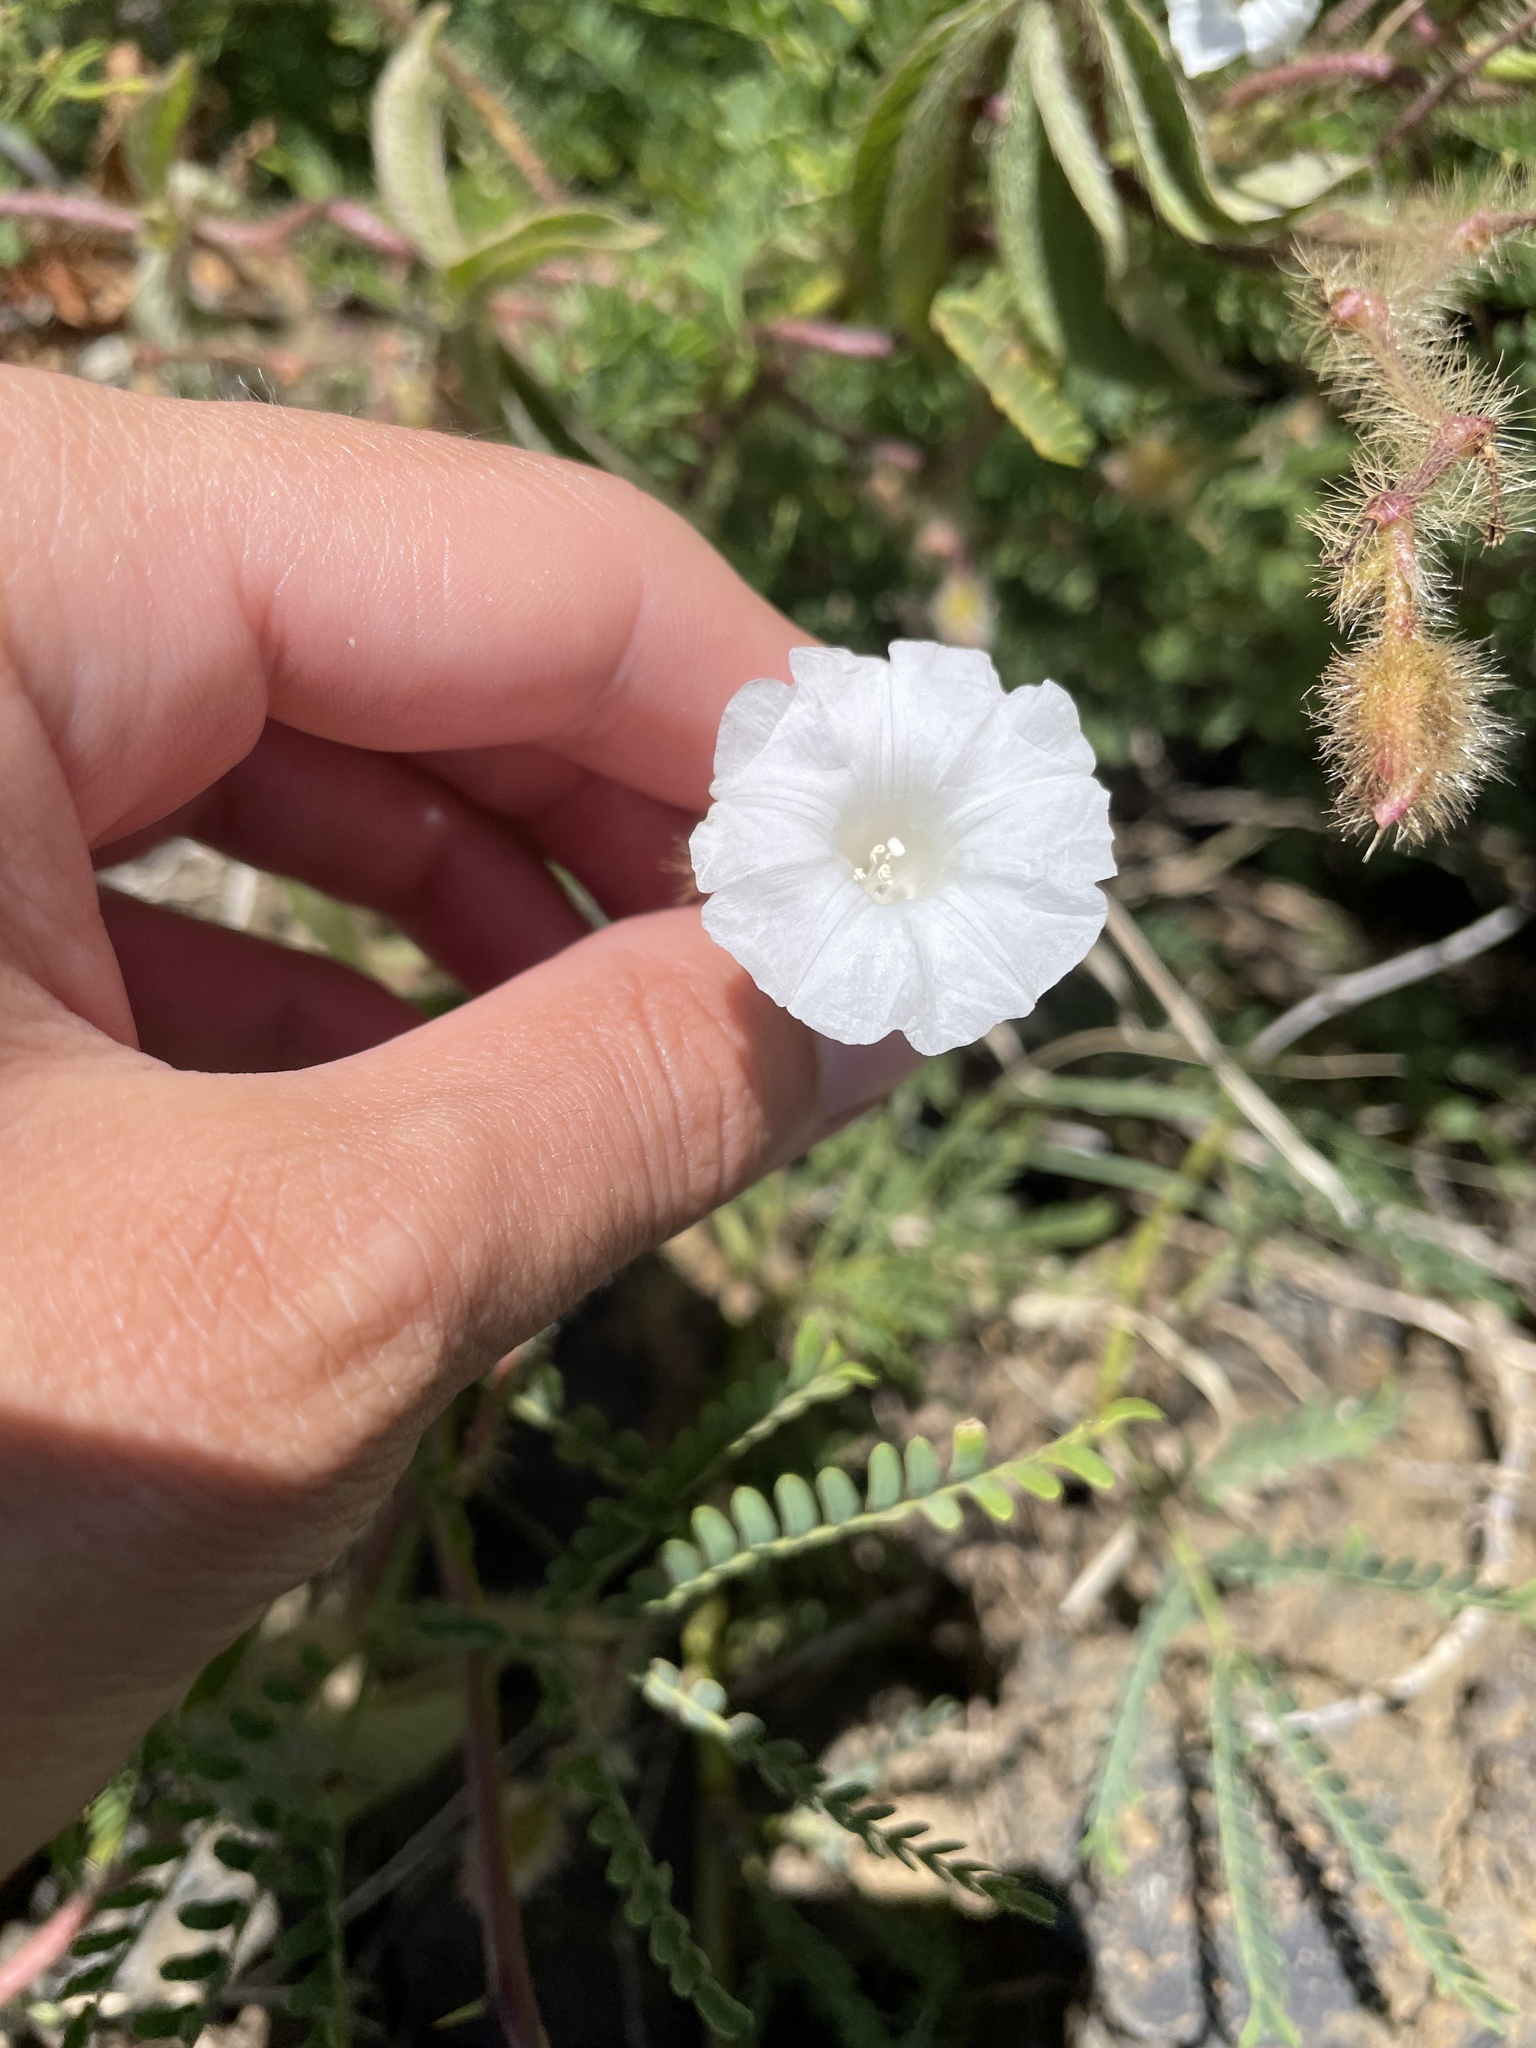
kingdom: Plantae
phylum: Tracheophyta
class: Magnoliopsida
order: Solanales
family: Convolvulaceae
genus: Distimake
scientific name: Distimake aegyptius
